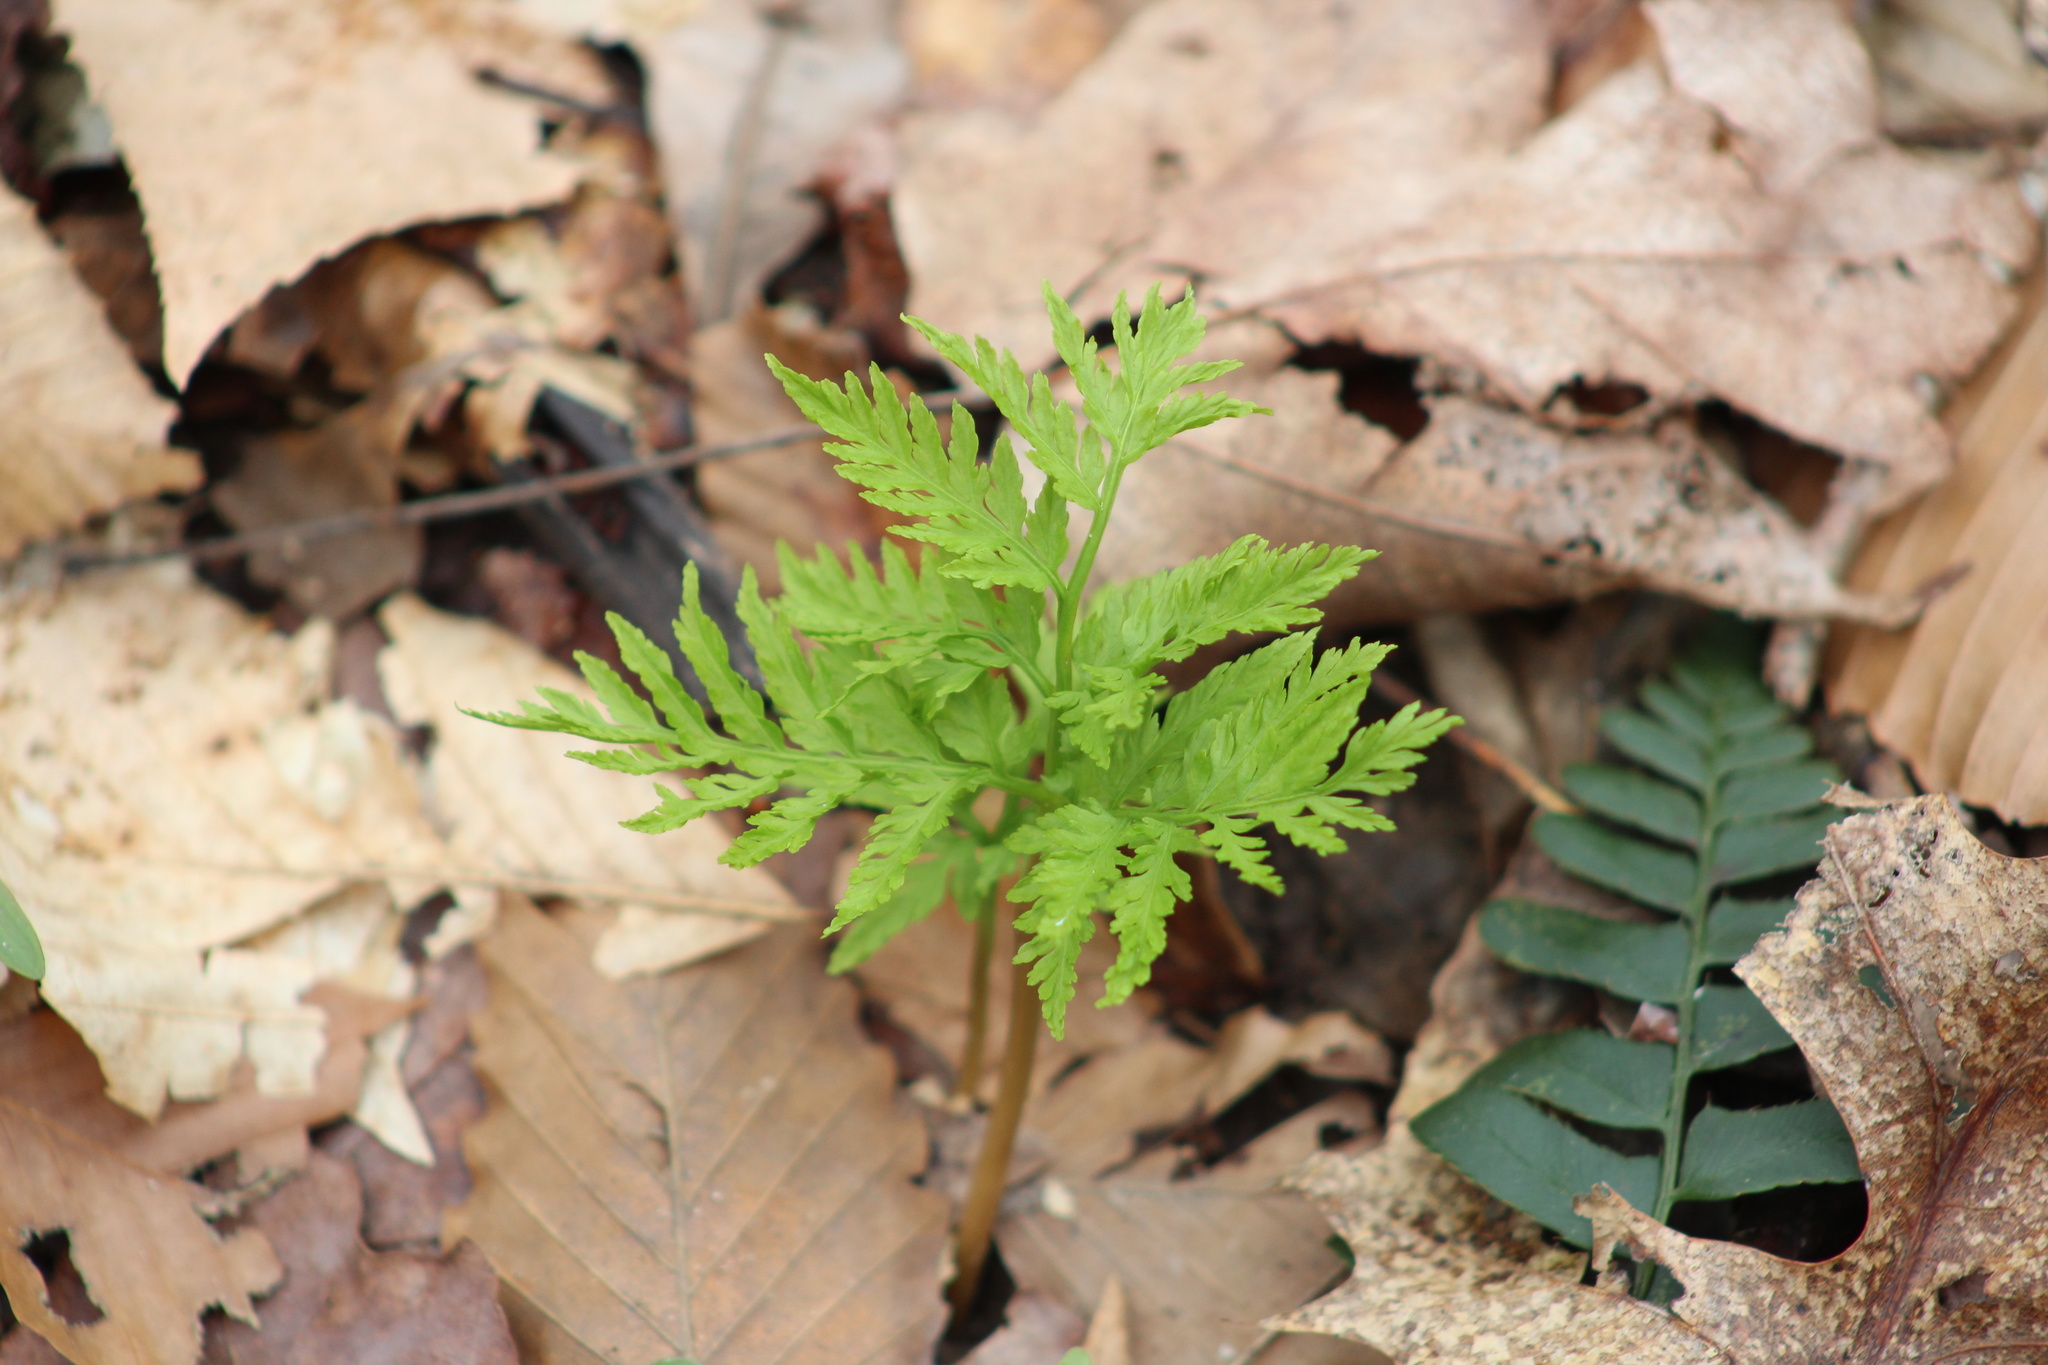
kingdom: Plantae
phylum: Tracheophyta
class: Polypodiopsida
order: Ophioglossales
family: Ophioglossaceae
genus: Botrypus
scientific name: Botrypus virginianus
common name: Common grapefern
